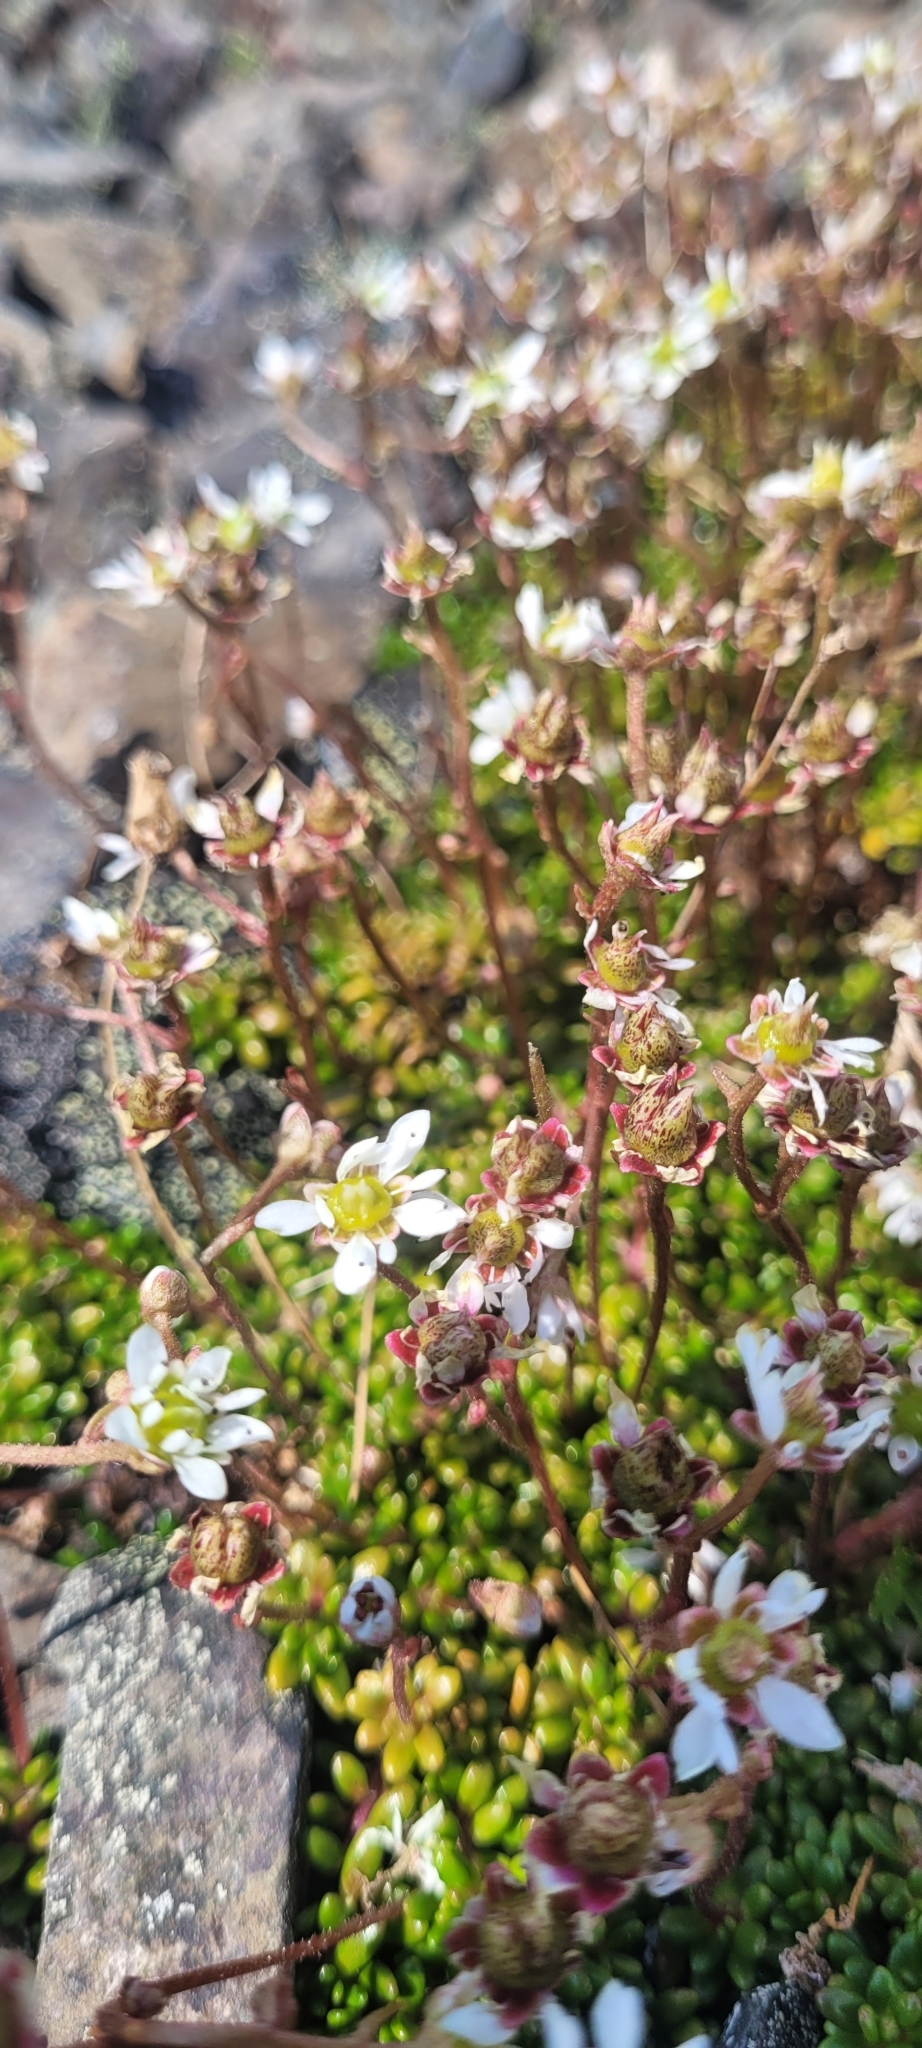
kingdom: Plantae
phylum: Tracheophyta
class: Magnoliopsida
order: Saxifragales
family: Saxifragaceae
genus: Micranthes
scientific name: Micranthes tolmiei
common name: Tolmie's saxifrage
